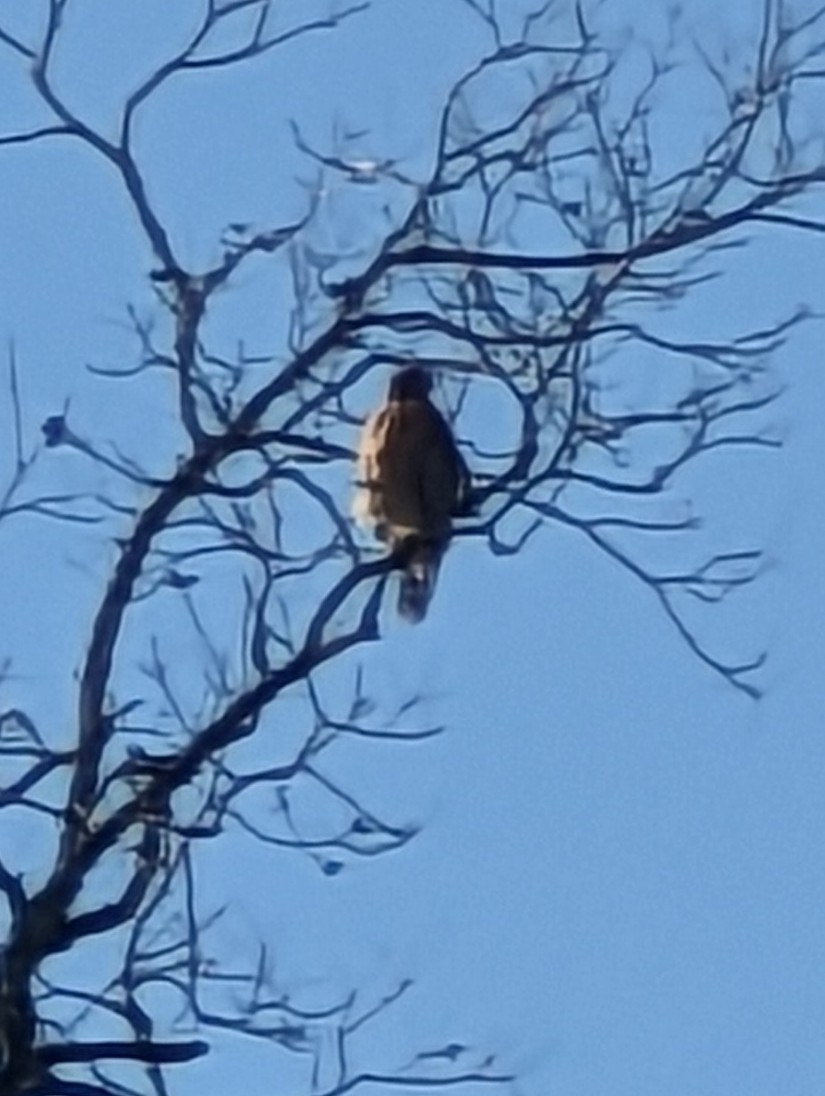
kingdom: Animalia
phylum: Chordata
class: Aves
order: Accipitriformes
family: Accipitridae
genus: Buteo
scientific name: Buteo lineatus
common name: Red-shouldered hawk
